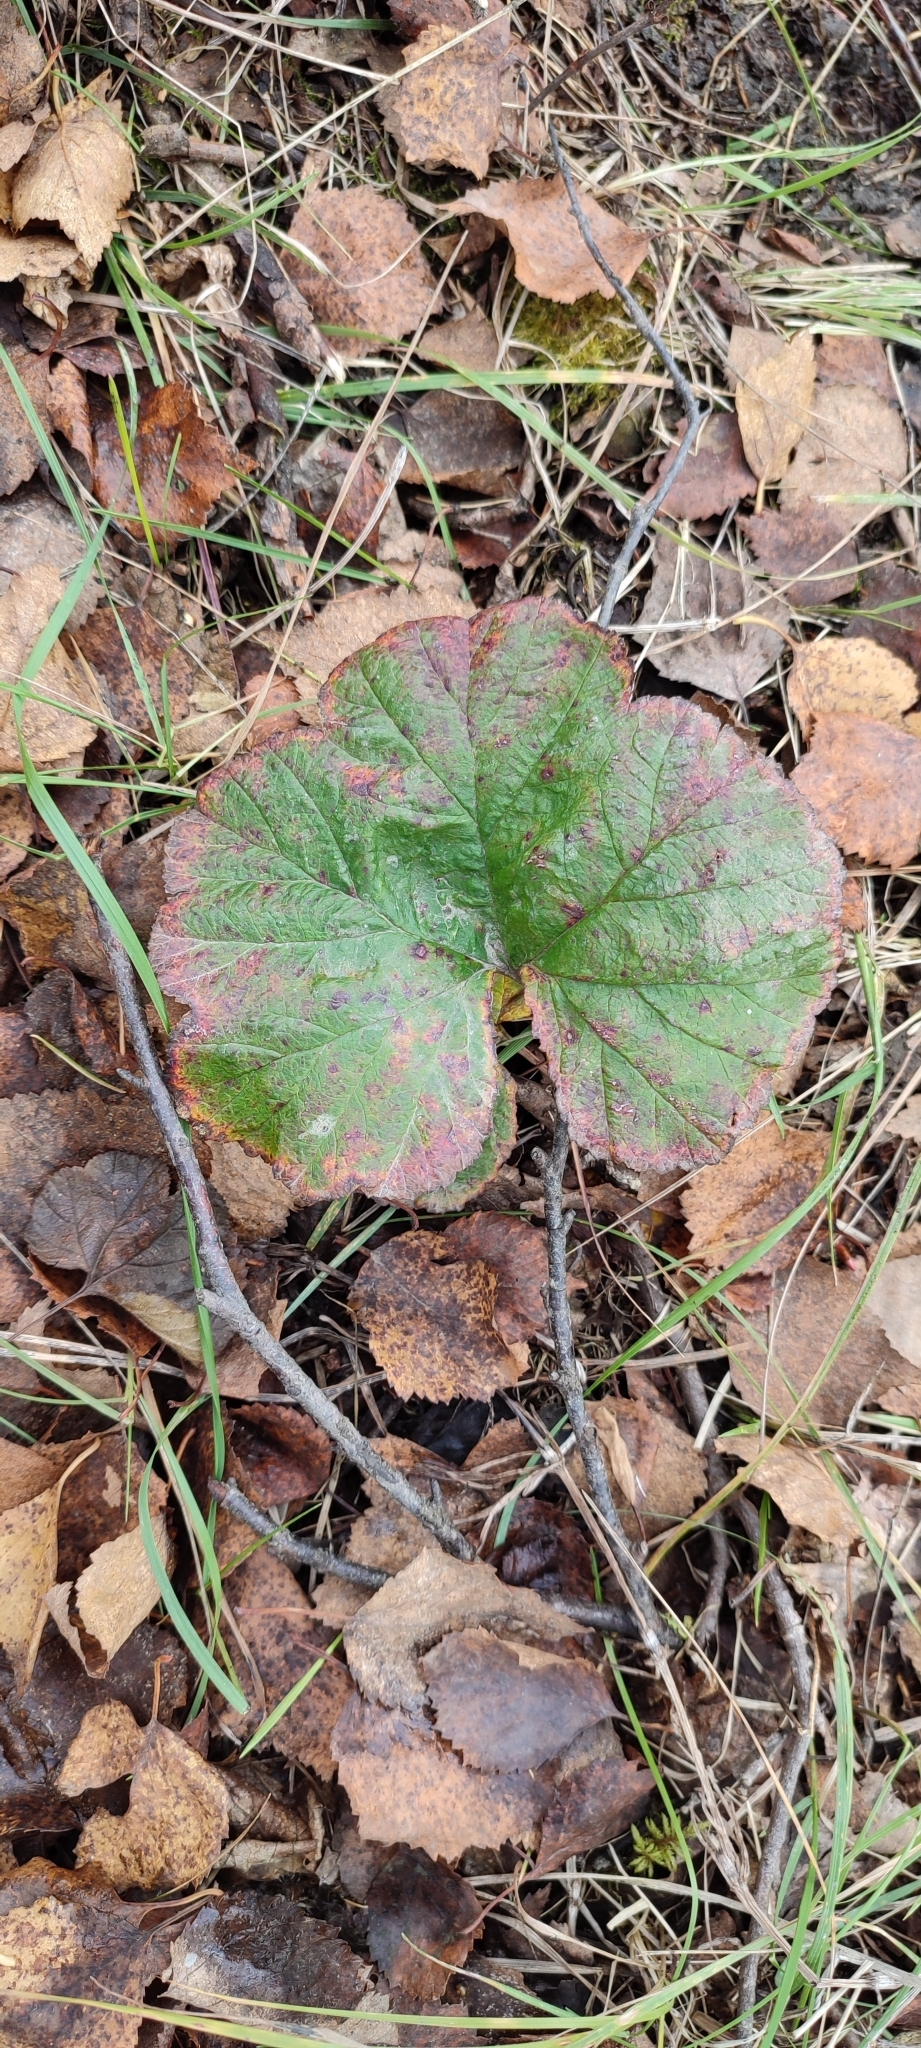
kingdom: Plantae
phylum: Tracheophyta
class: Magnoliopsida
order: Rosales
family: Rosaceae
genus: Rubus
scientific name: Rubus chamaemorus
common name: Cloudberry
